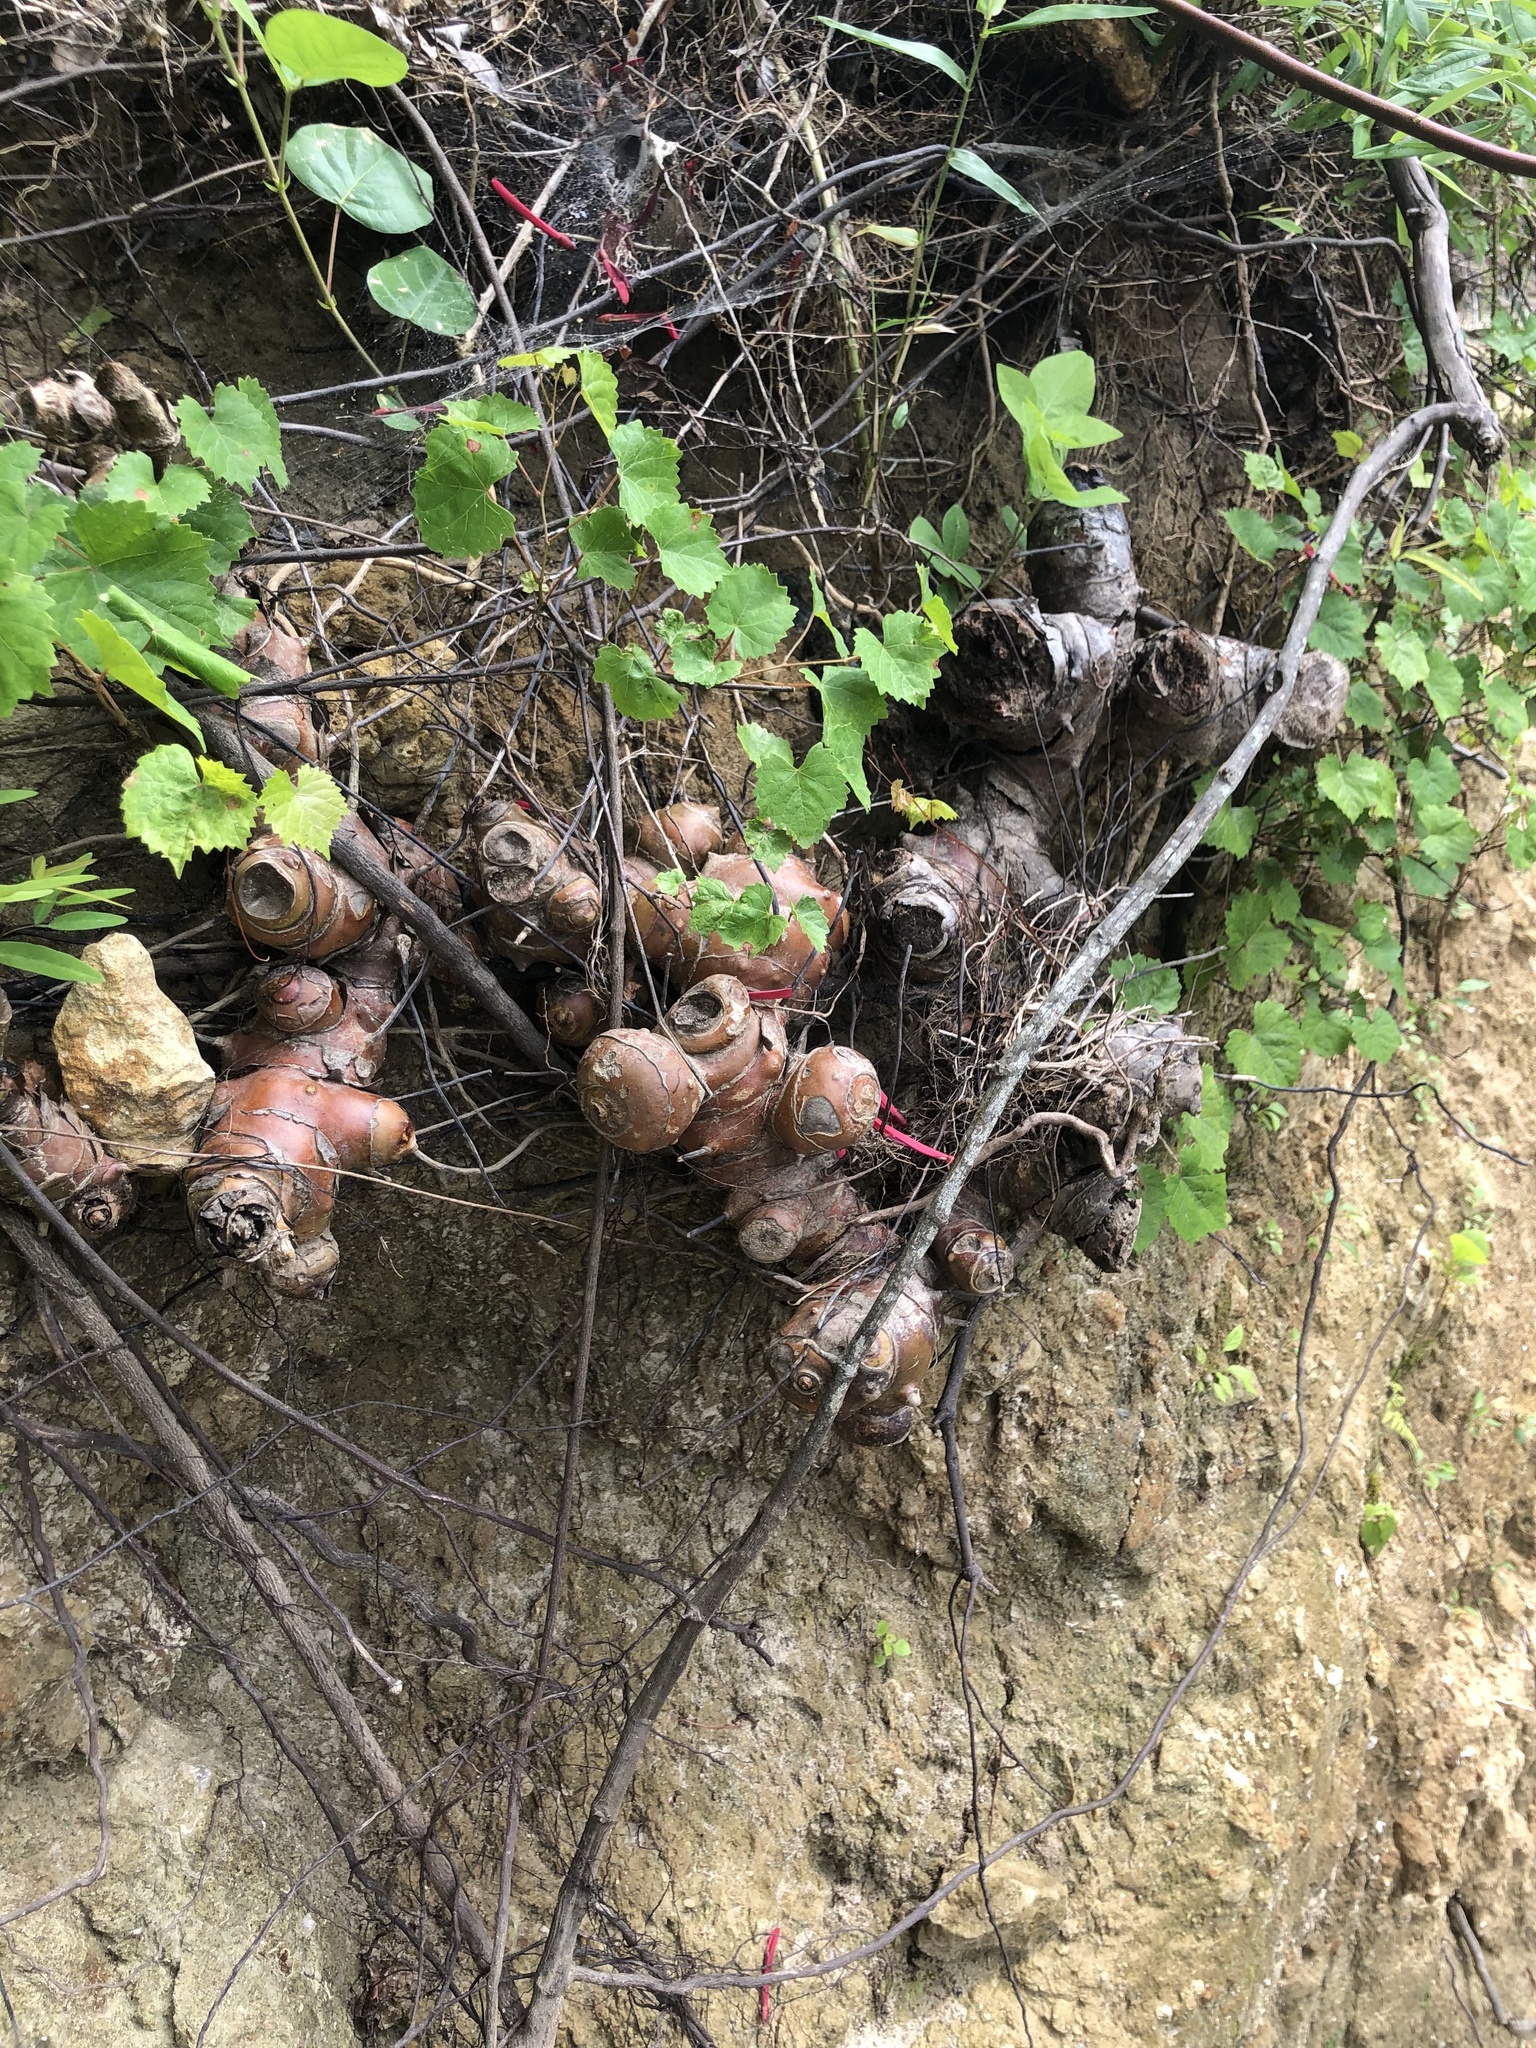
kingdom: Plantae
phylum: Tracheophyta
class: Liliopsida
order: Liliales
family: Smilacaceae
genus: Smilax
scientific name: Smilax maritima
